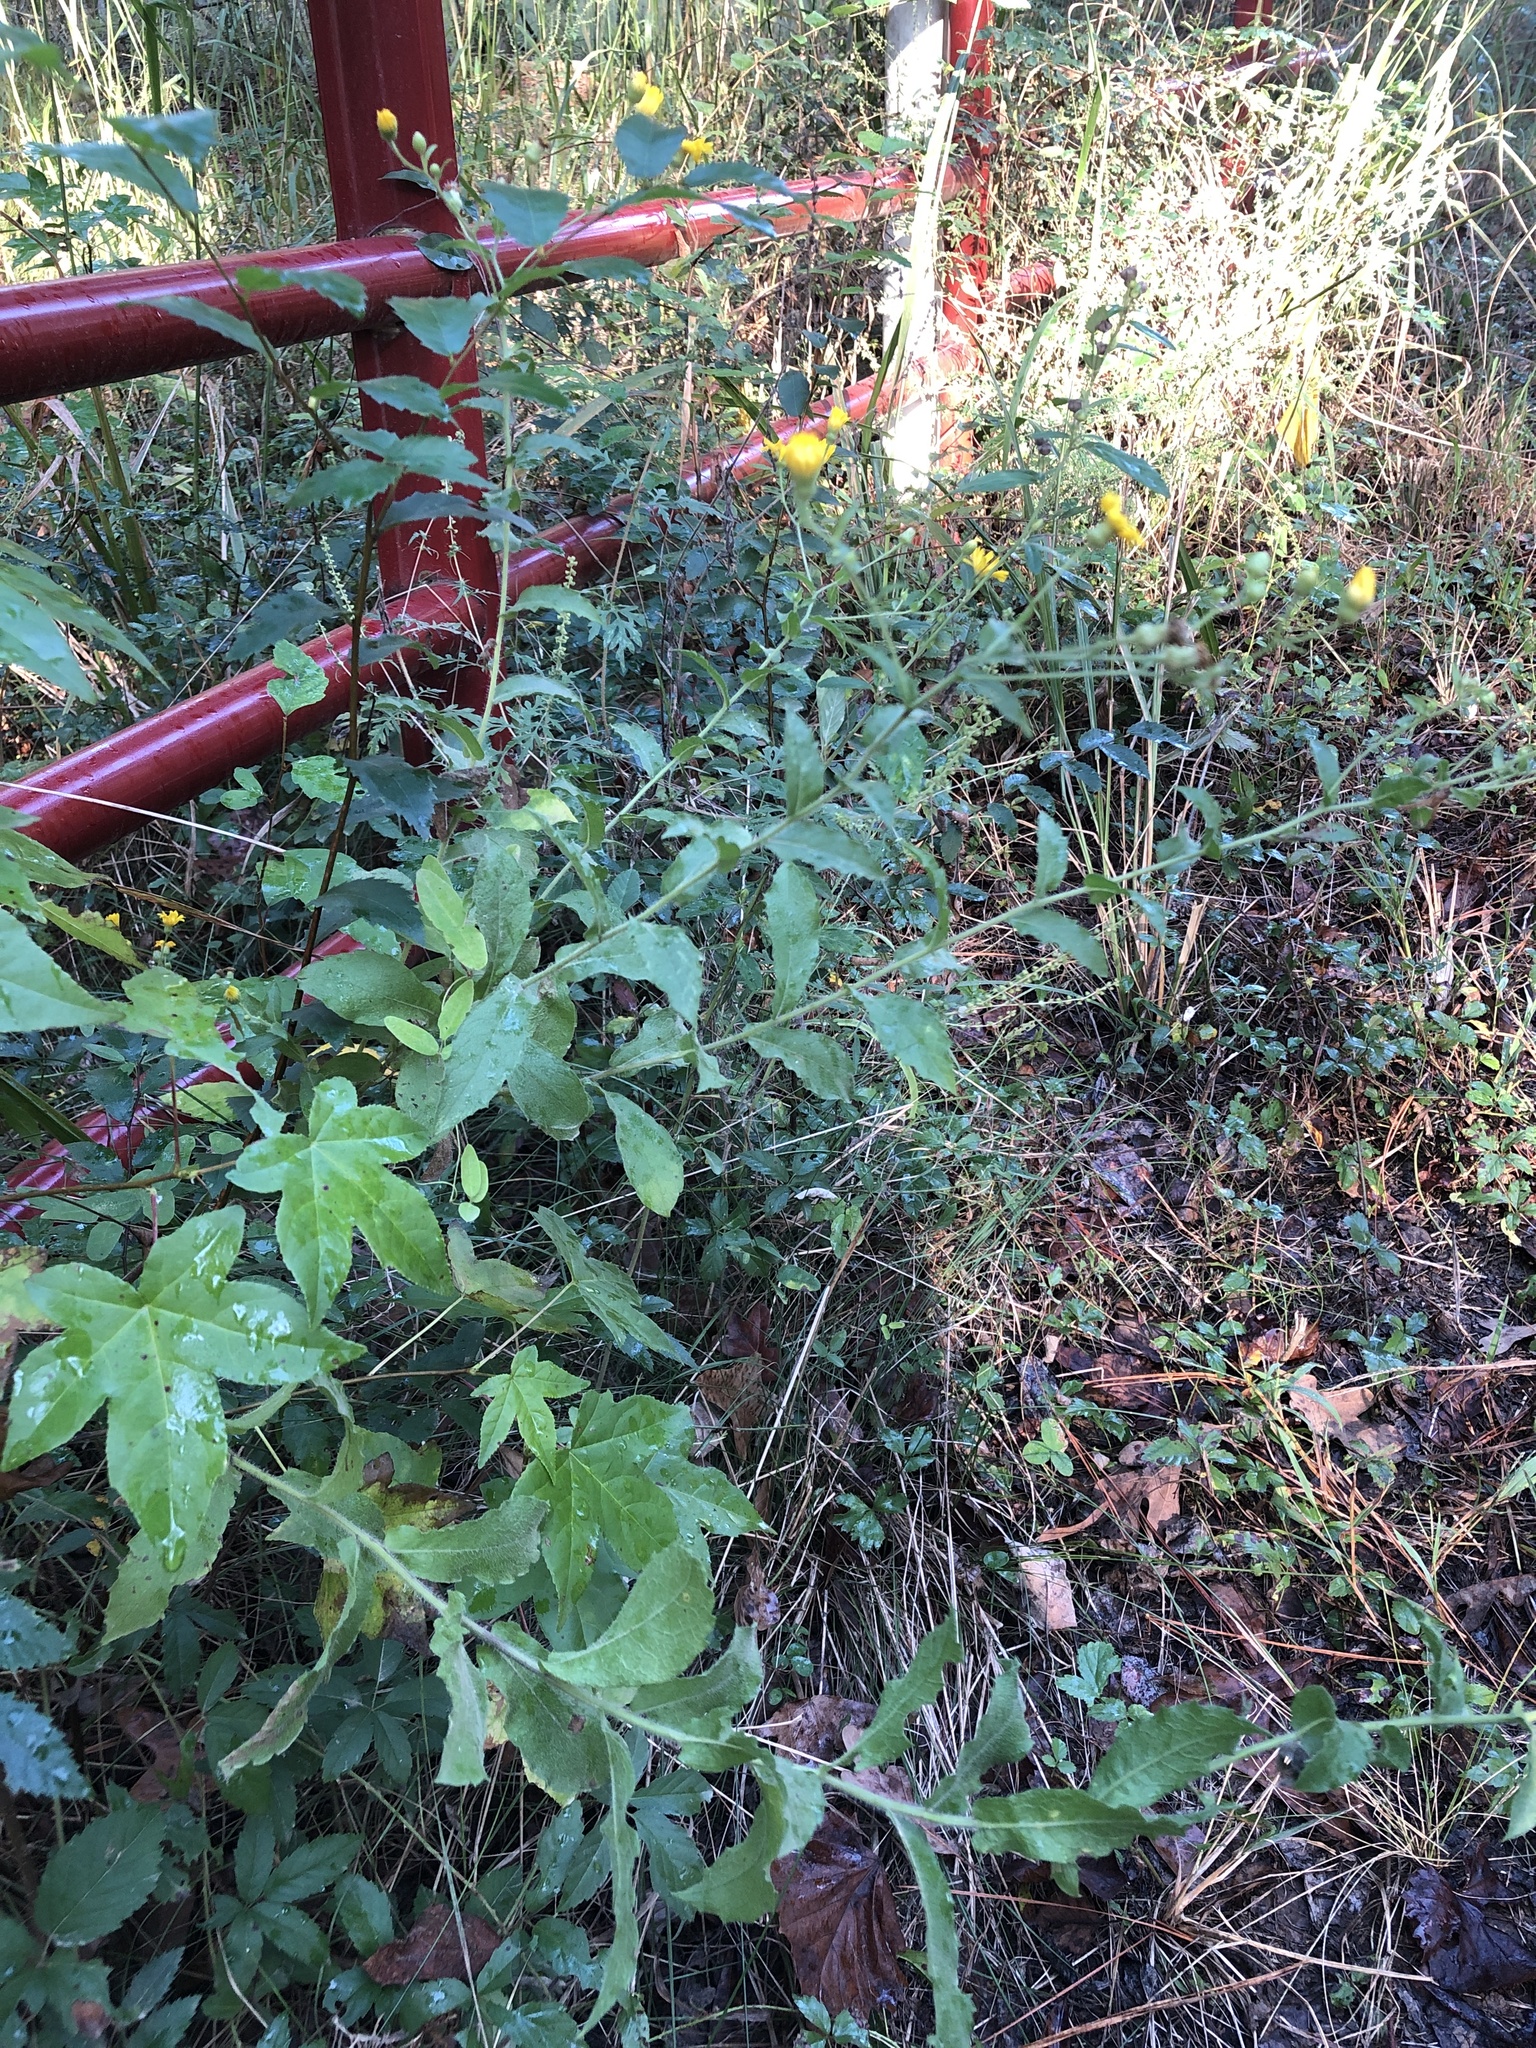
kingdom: Plantae
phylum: Tracheophyta
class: Magnoliopsida
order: Asterales
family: Asteraceae
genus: Heterotheca
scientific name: Heterotheca subaxillaris
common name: Camphorweed
